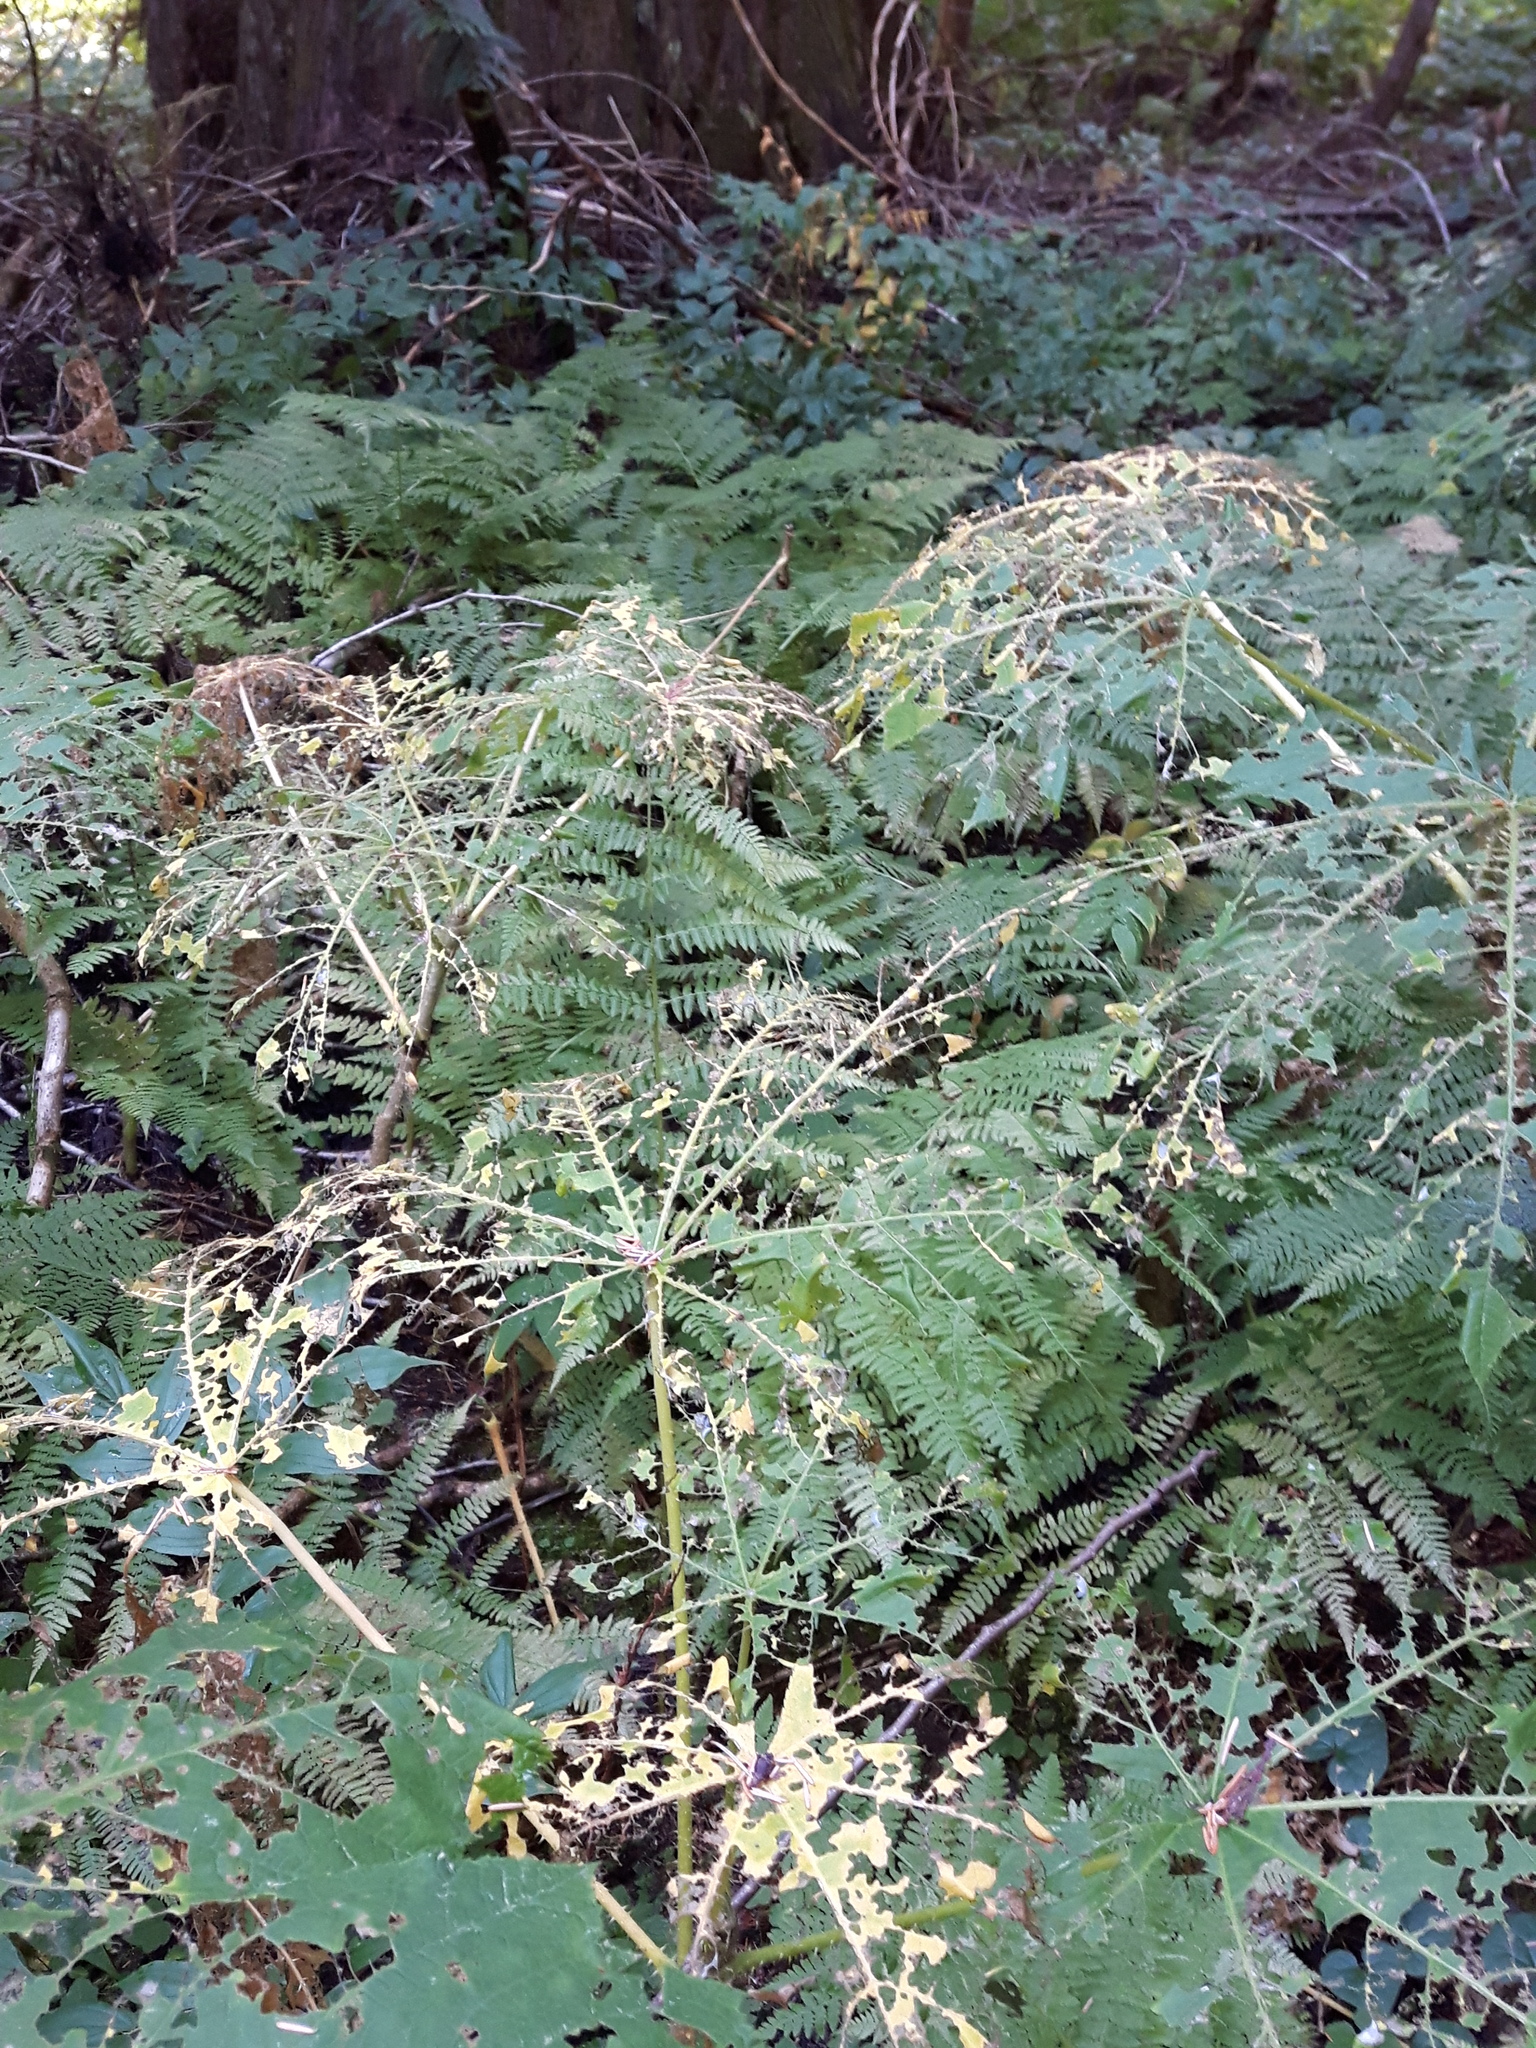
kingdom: Plantae
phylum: Tracheophyta
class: Magnoliopsida
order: Apiales
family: Araliaceae
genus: Oplopanax
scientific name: Oplopanax horridus
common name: Devil's walking-stick
